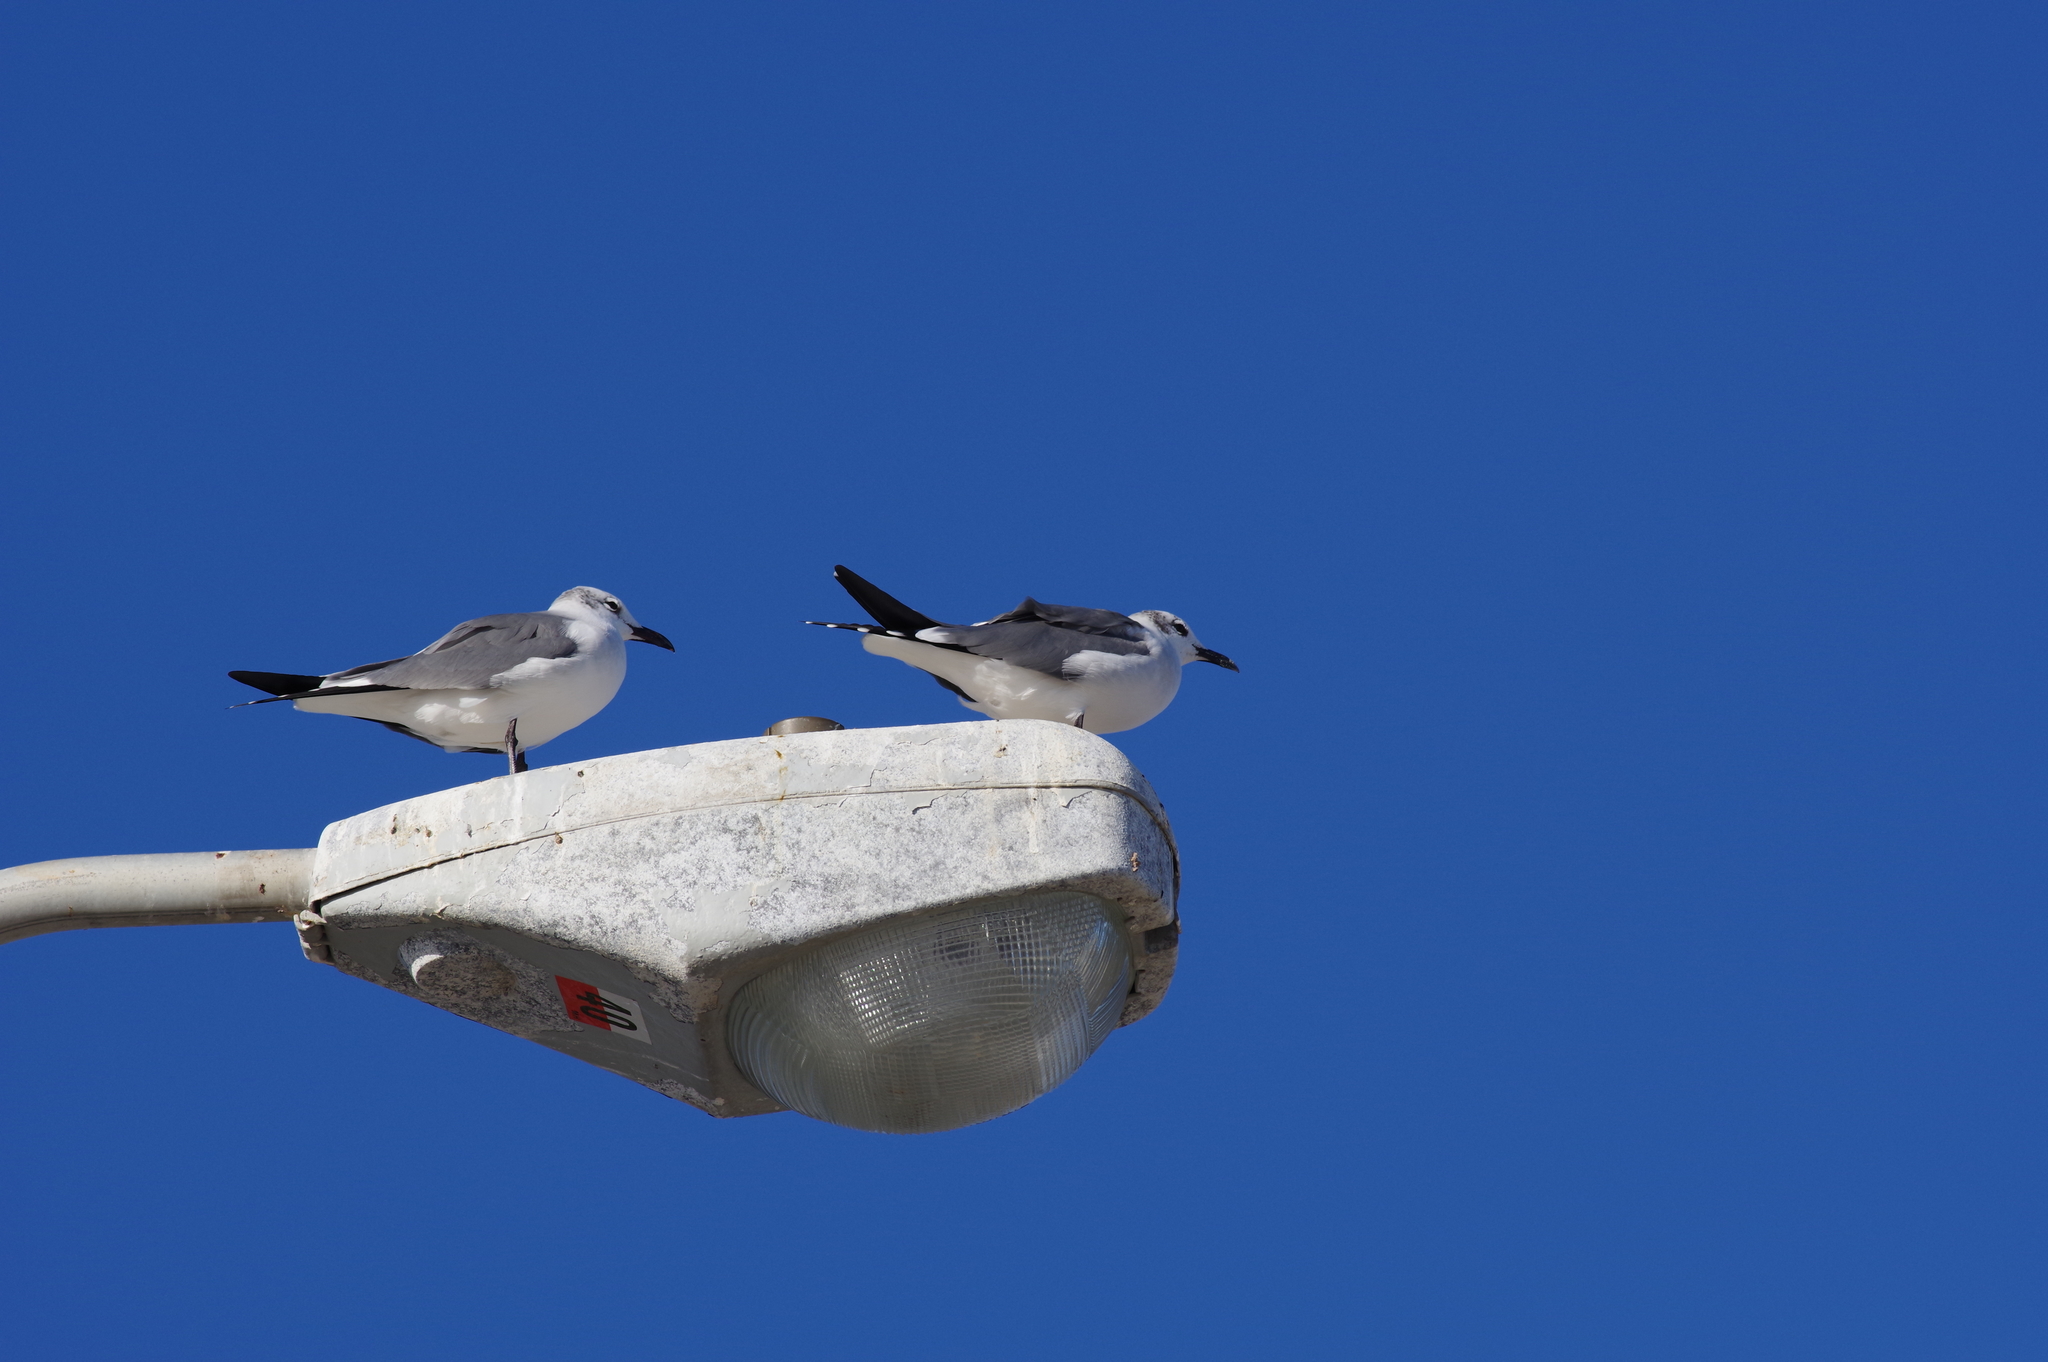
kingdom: Animalia
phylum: Chordata
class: Aves
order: Charadriiformes
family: Laridae
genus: Leucophaeus
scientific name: Leucophaeus atricilla
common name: Laughing gull
